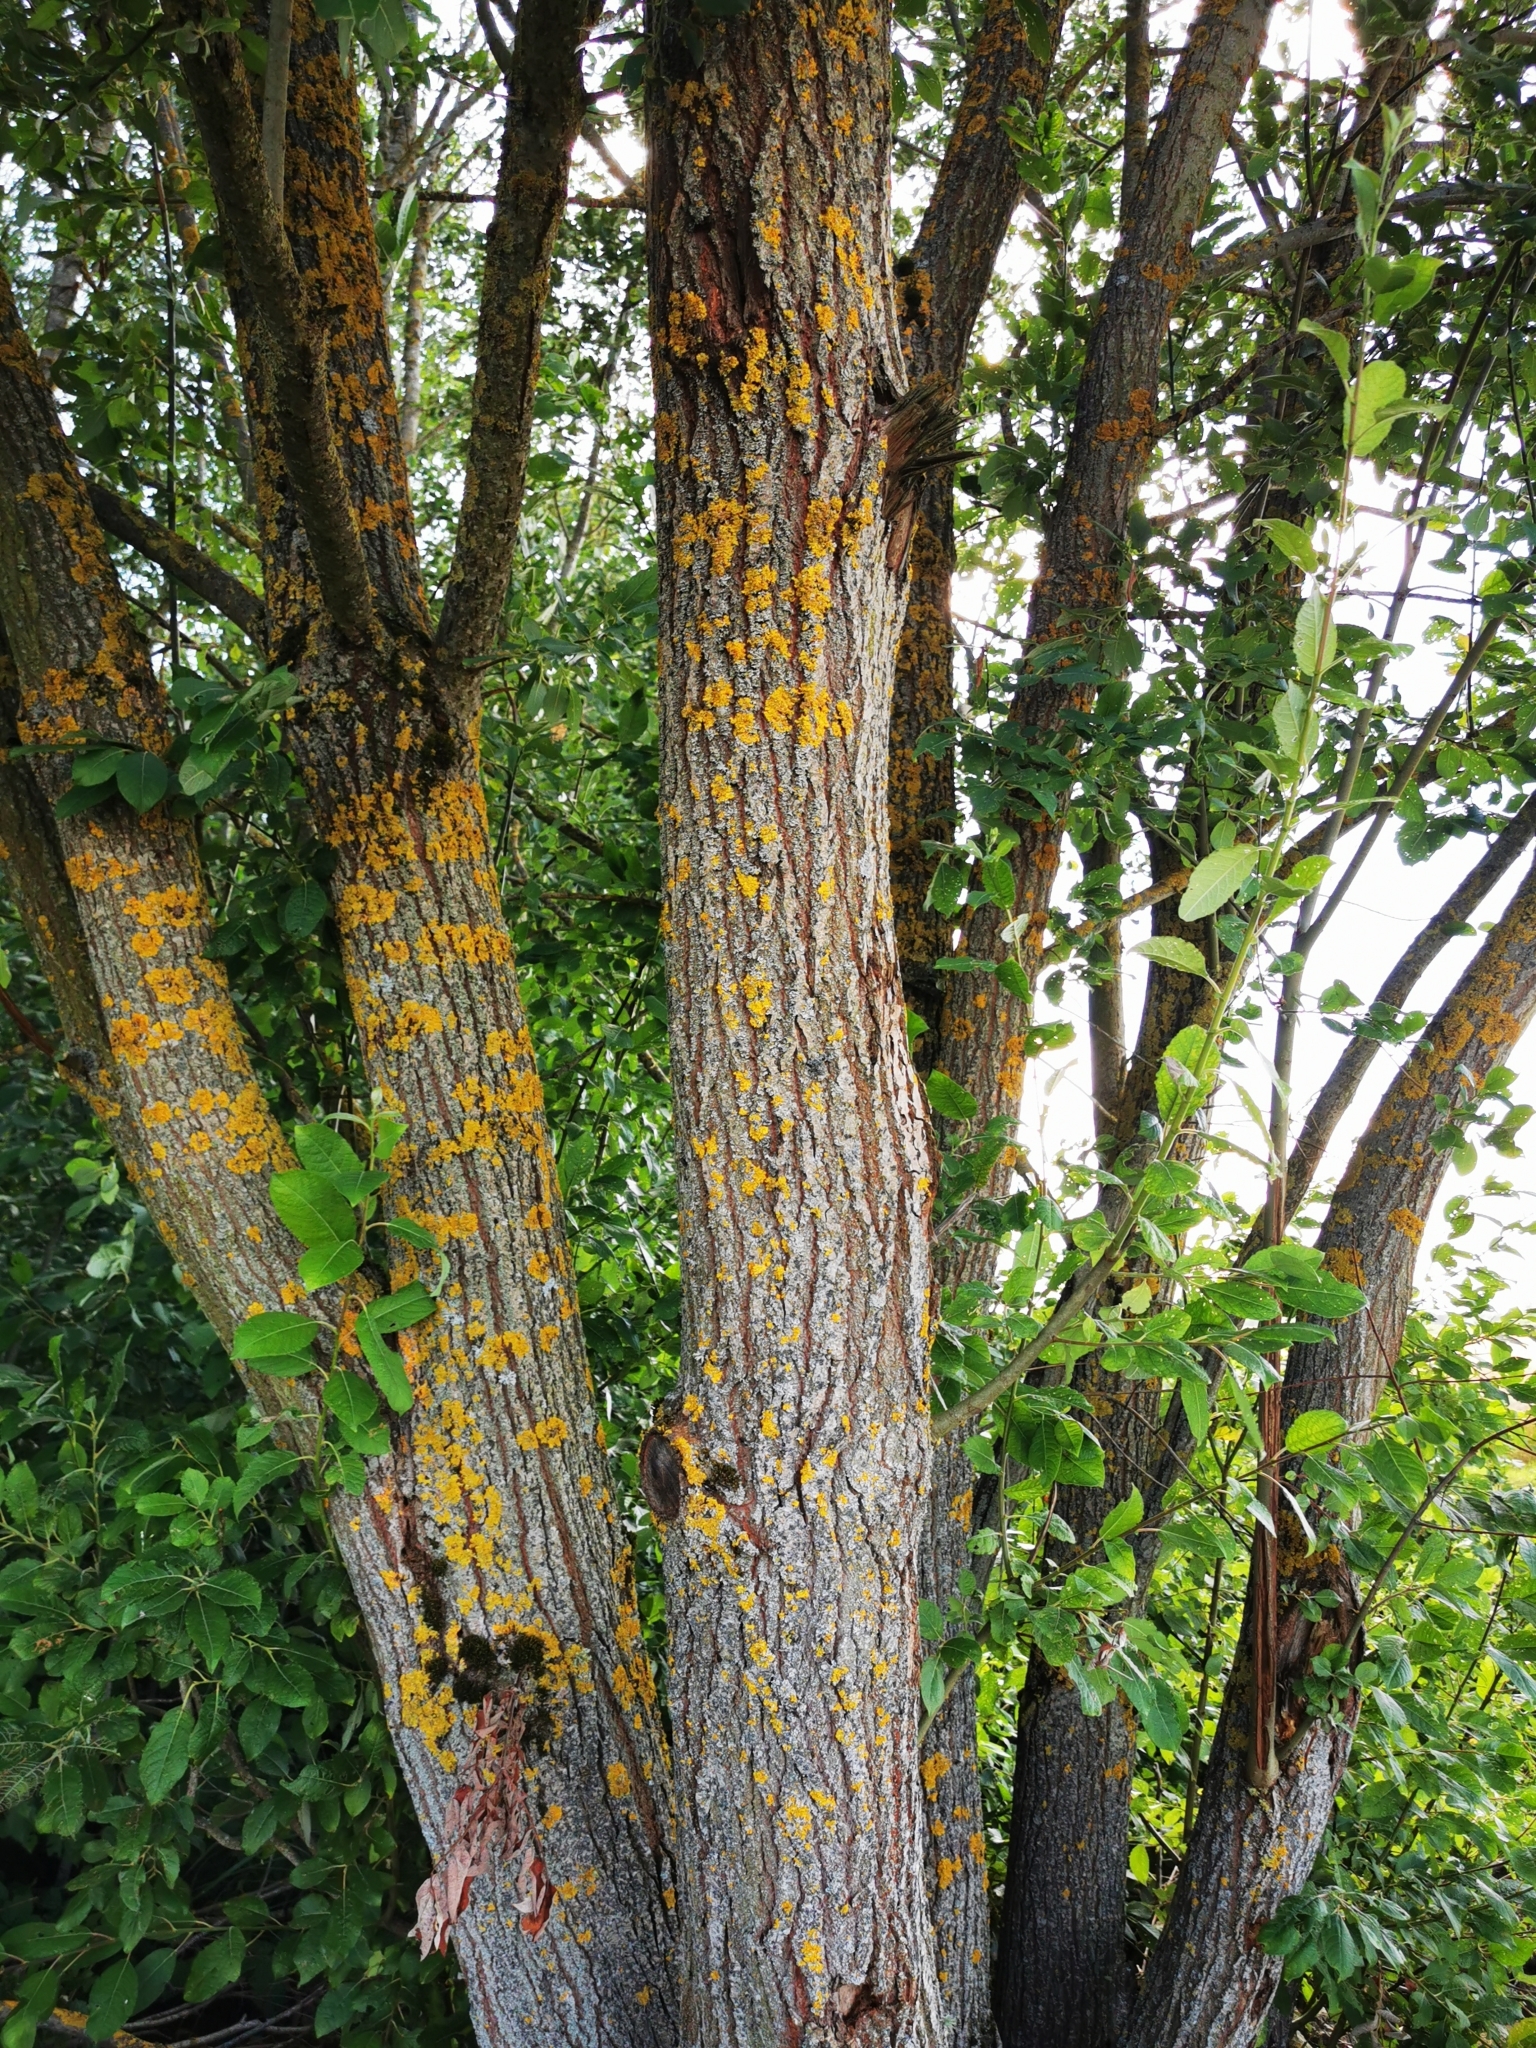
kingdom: Plantae
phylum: Tracheophyta
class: Magnoliopsida
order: Malpighiales
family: Salicaceae
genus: Salix
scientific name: Salix caprea
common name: Goat willow
